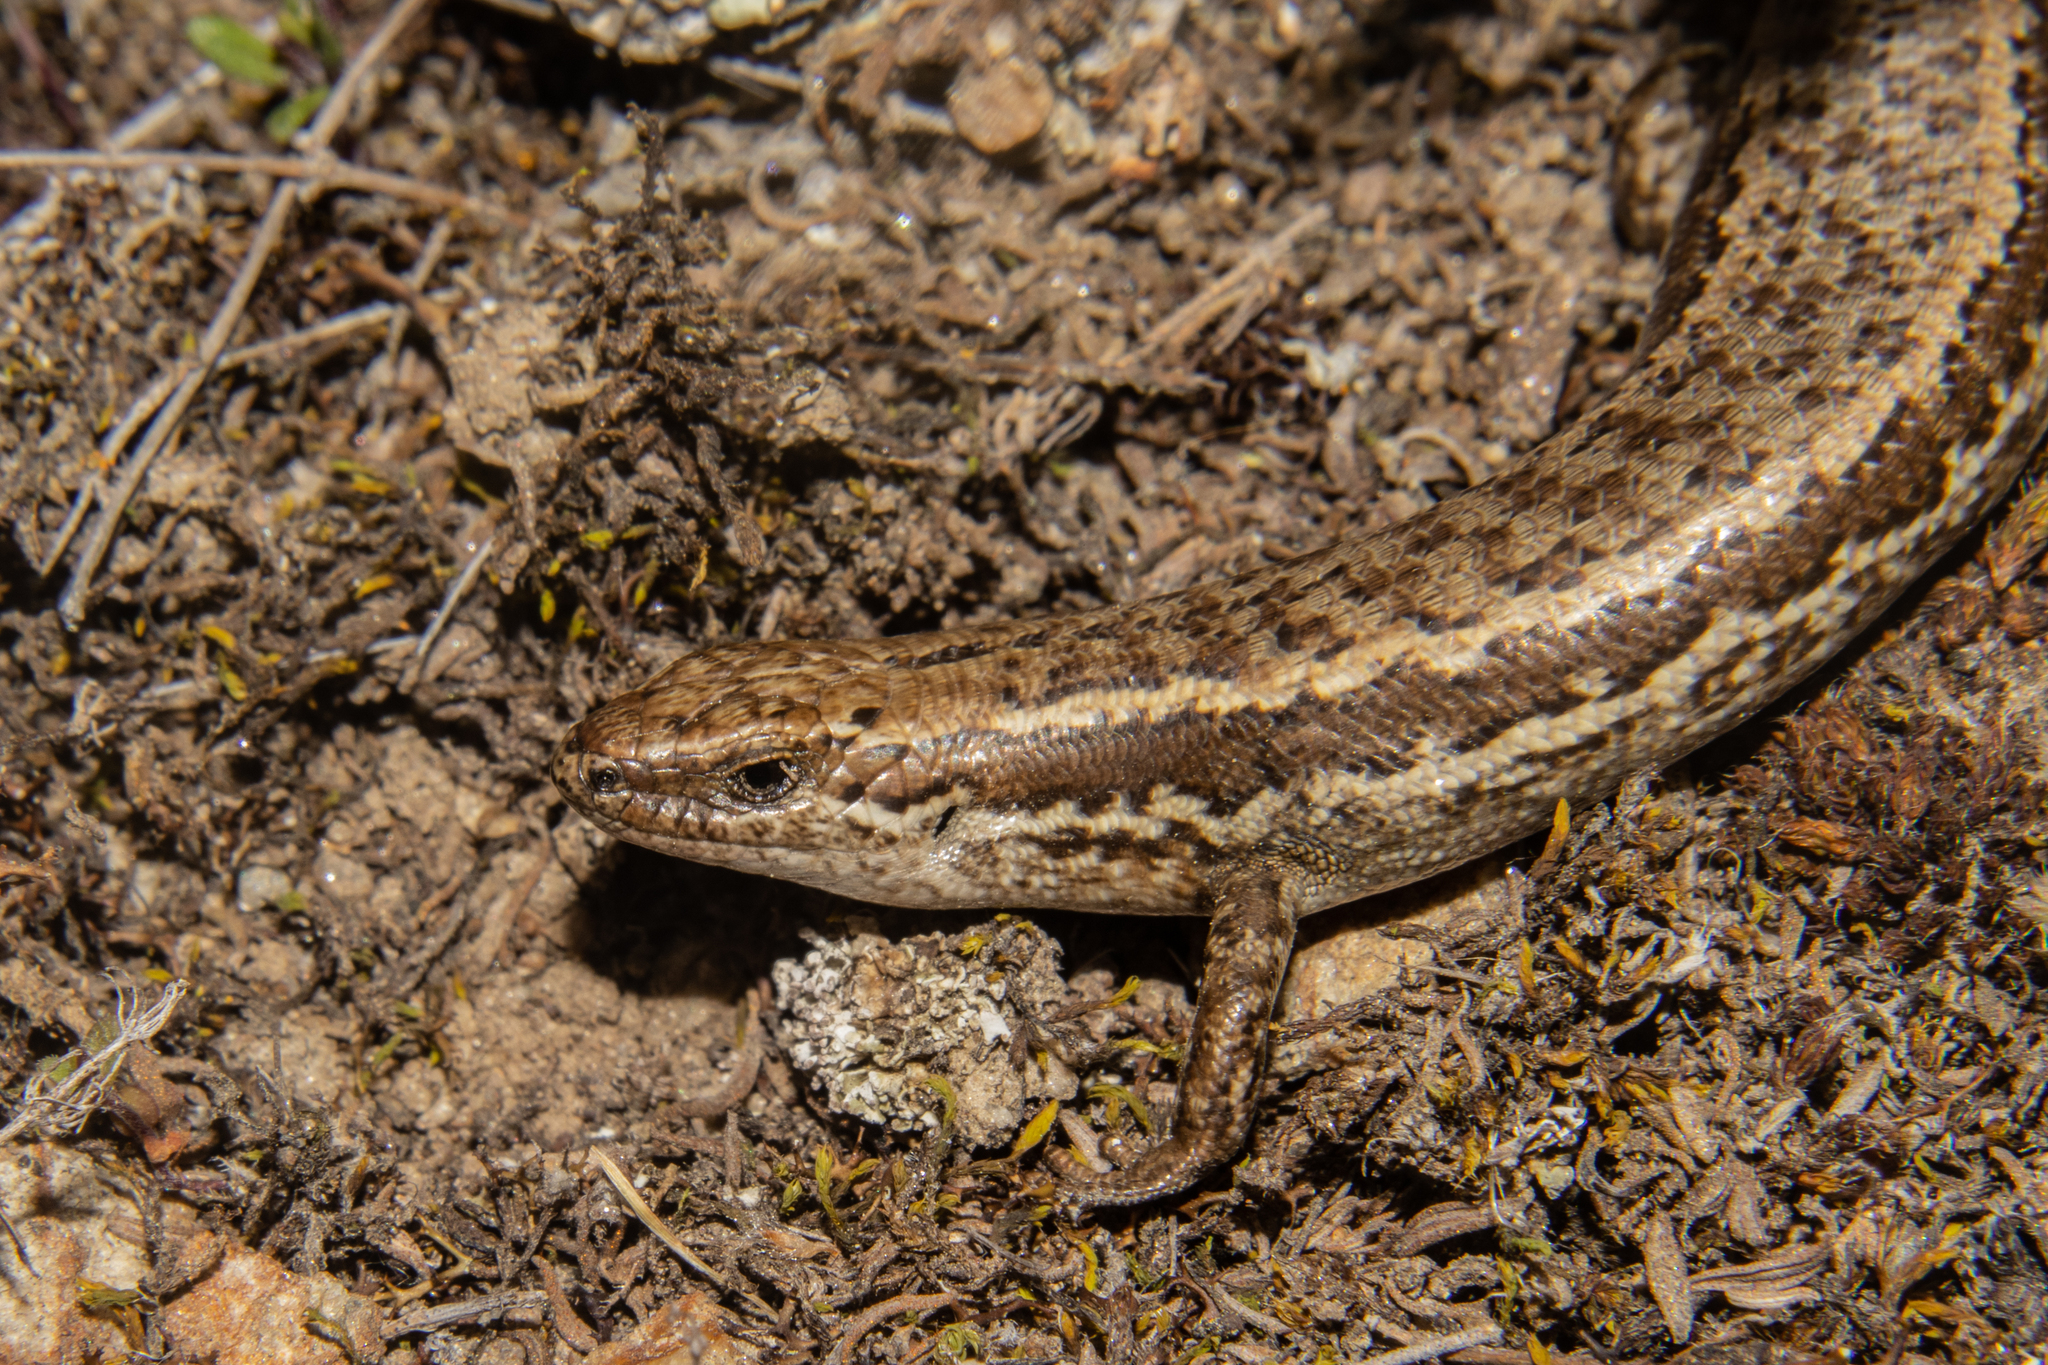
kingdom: Animalia
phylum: Chordata
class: Squamata
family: Scincidae
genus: Oligosoma
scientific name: Oligosoma maccanni
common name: Mccann’s skink
